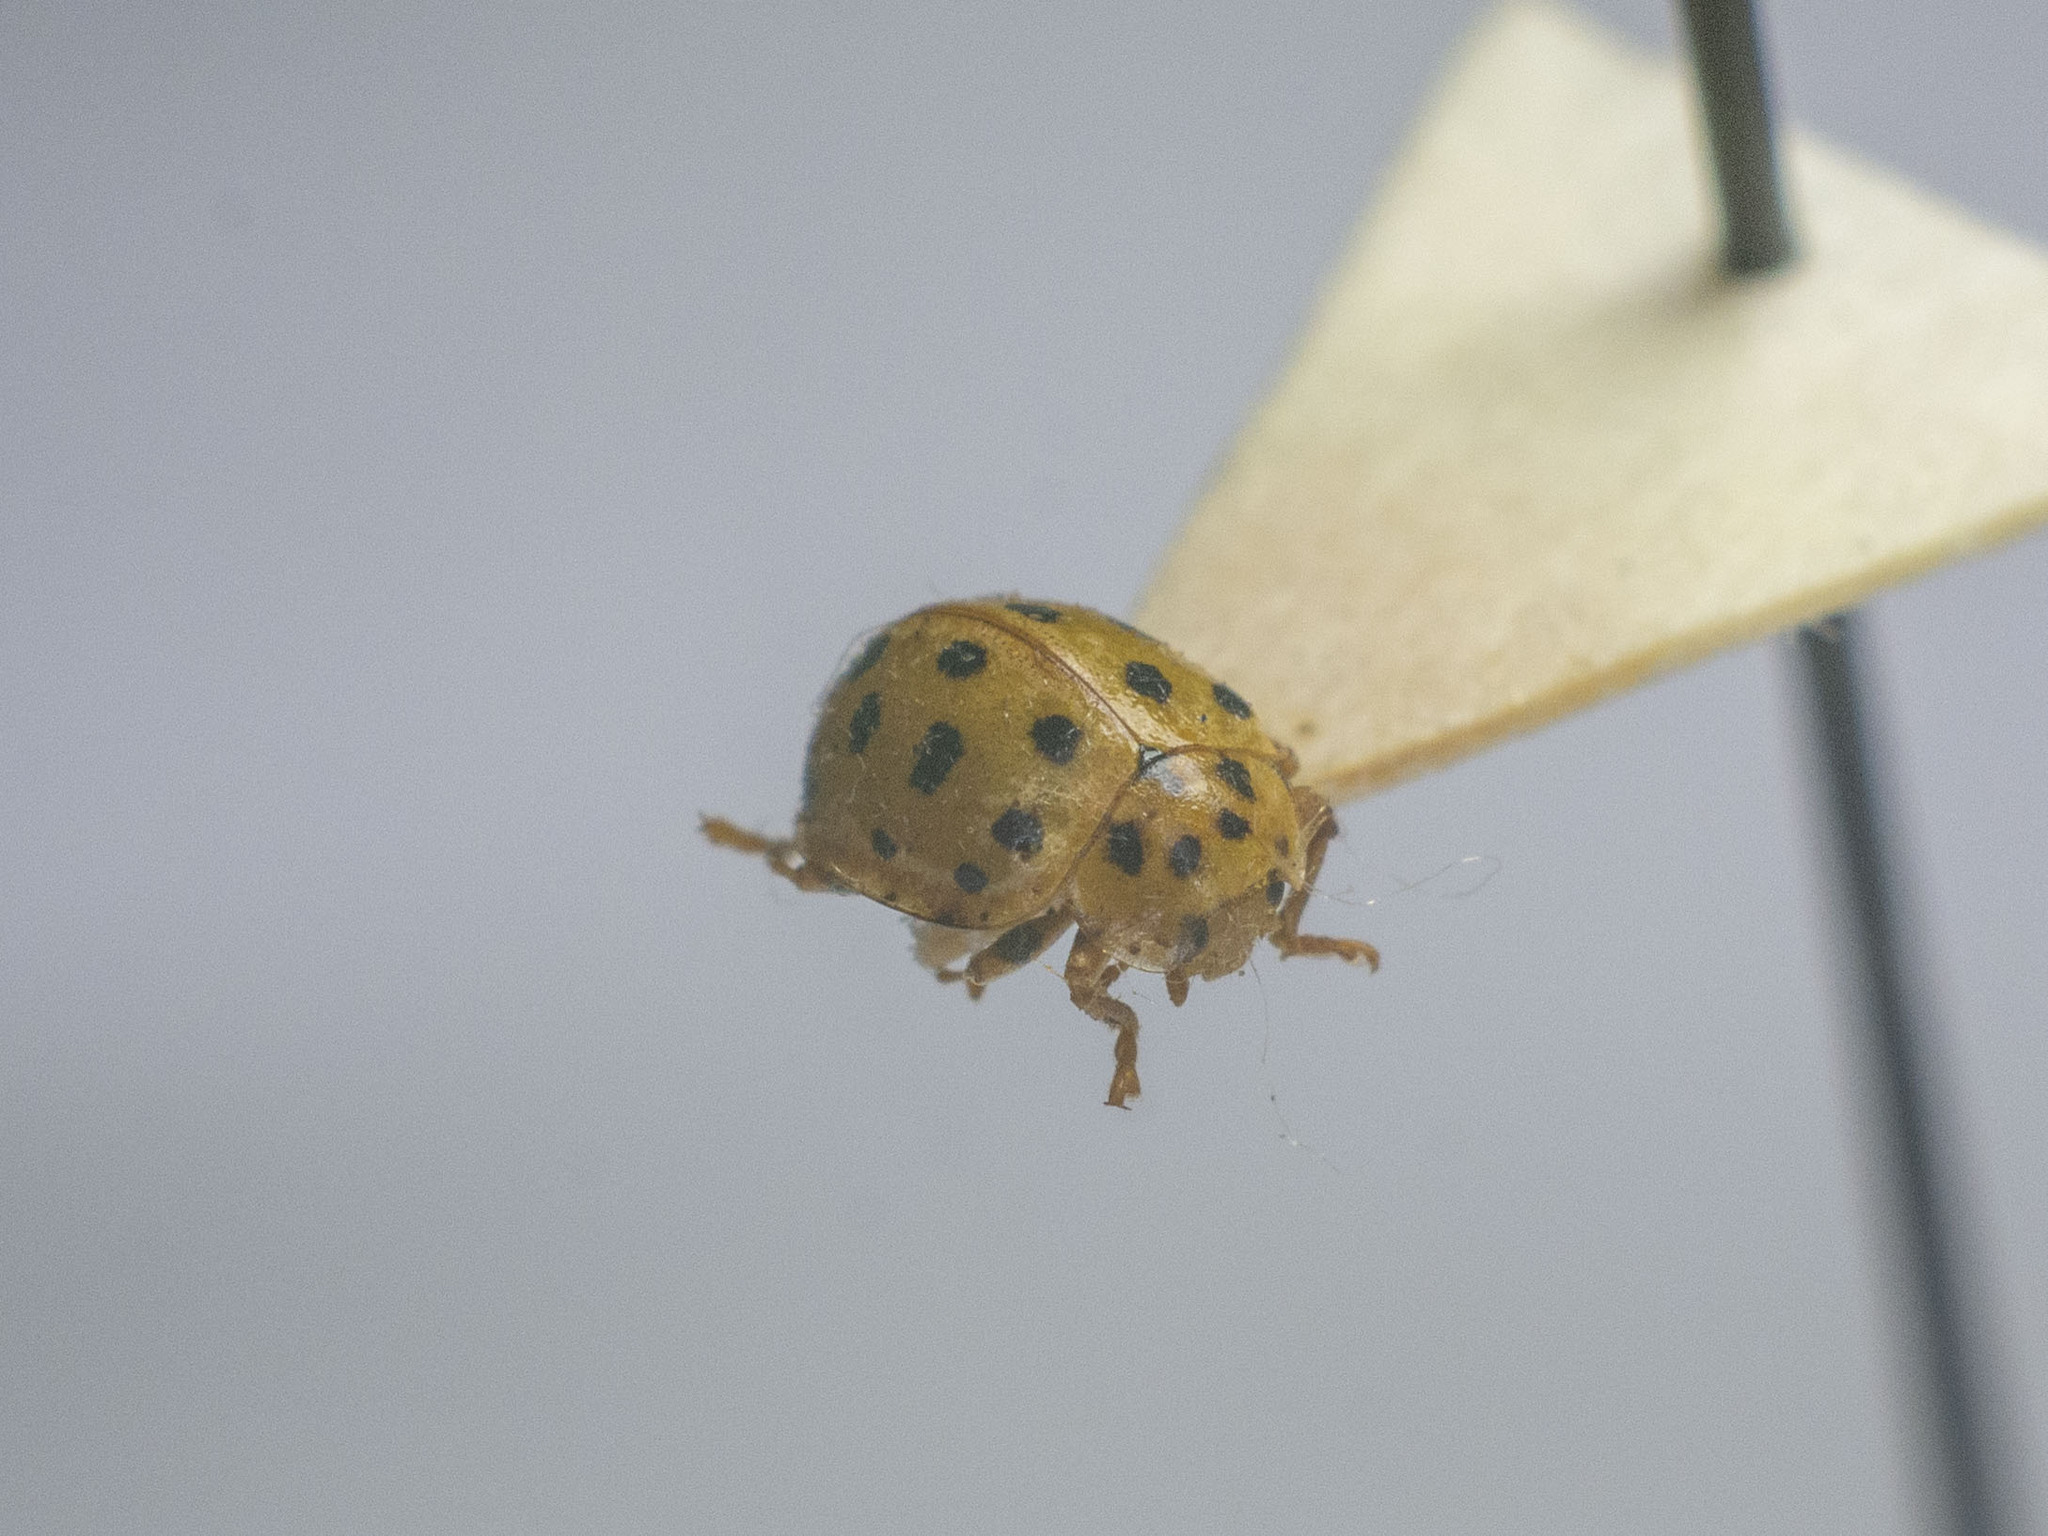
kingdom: Animalia
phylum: Arthropoda
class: Insecta
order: Coleoptera
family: Coccinellidae
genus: Psyllobora
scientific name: Psyllobora vigintiduopunctata
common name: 22-spot ladybird
